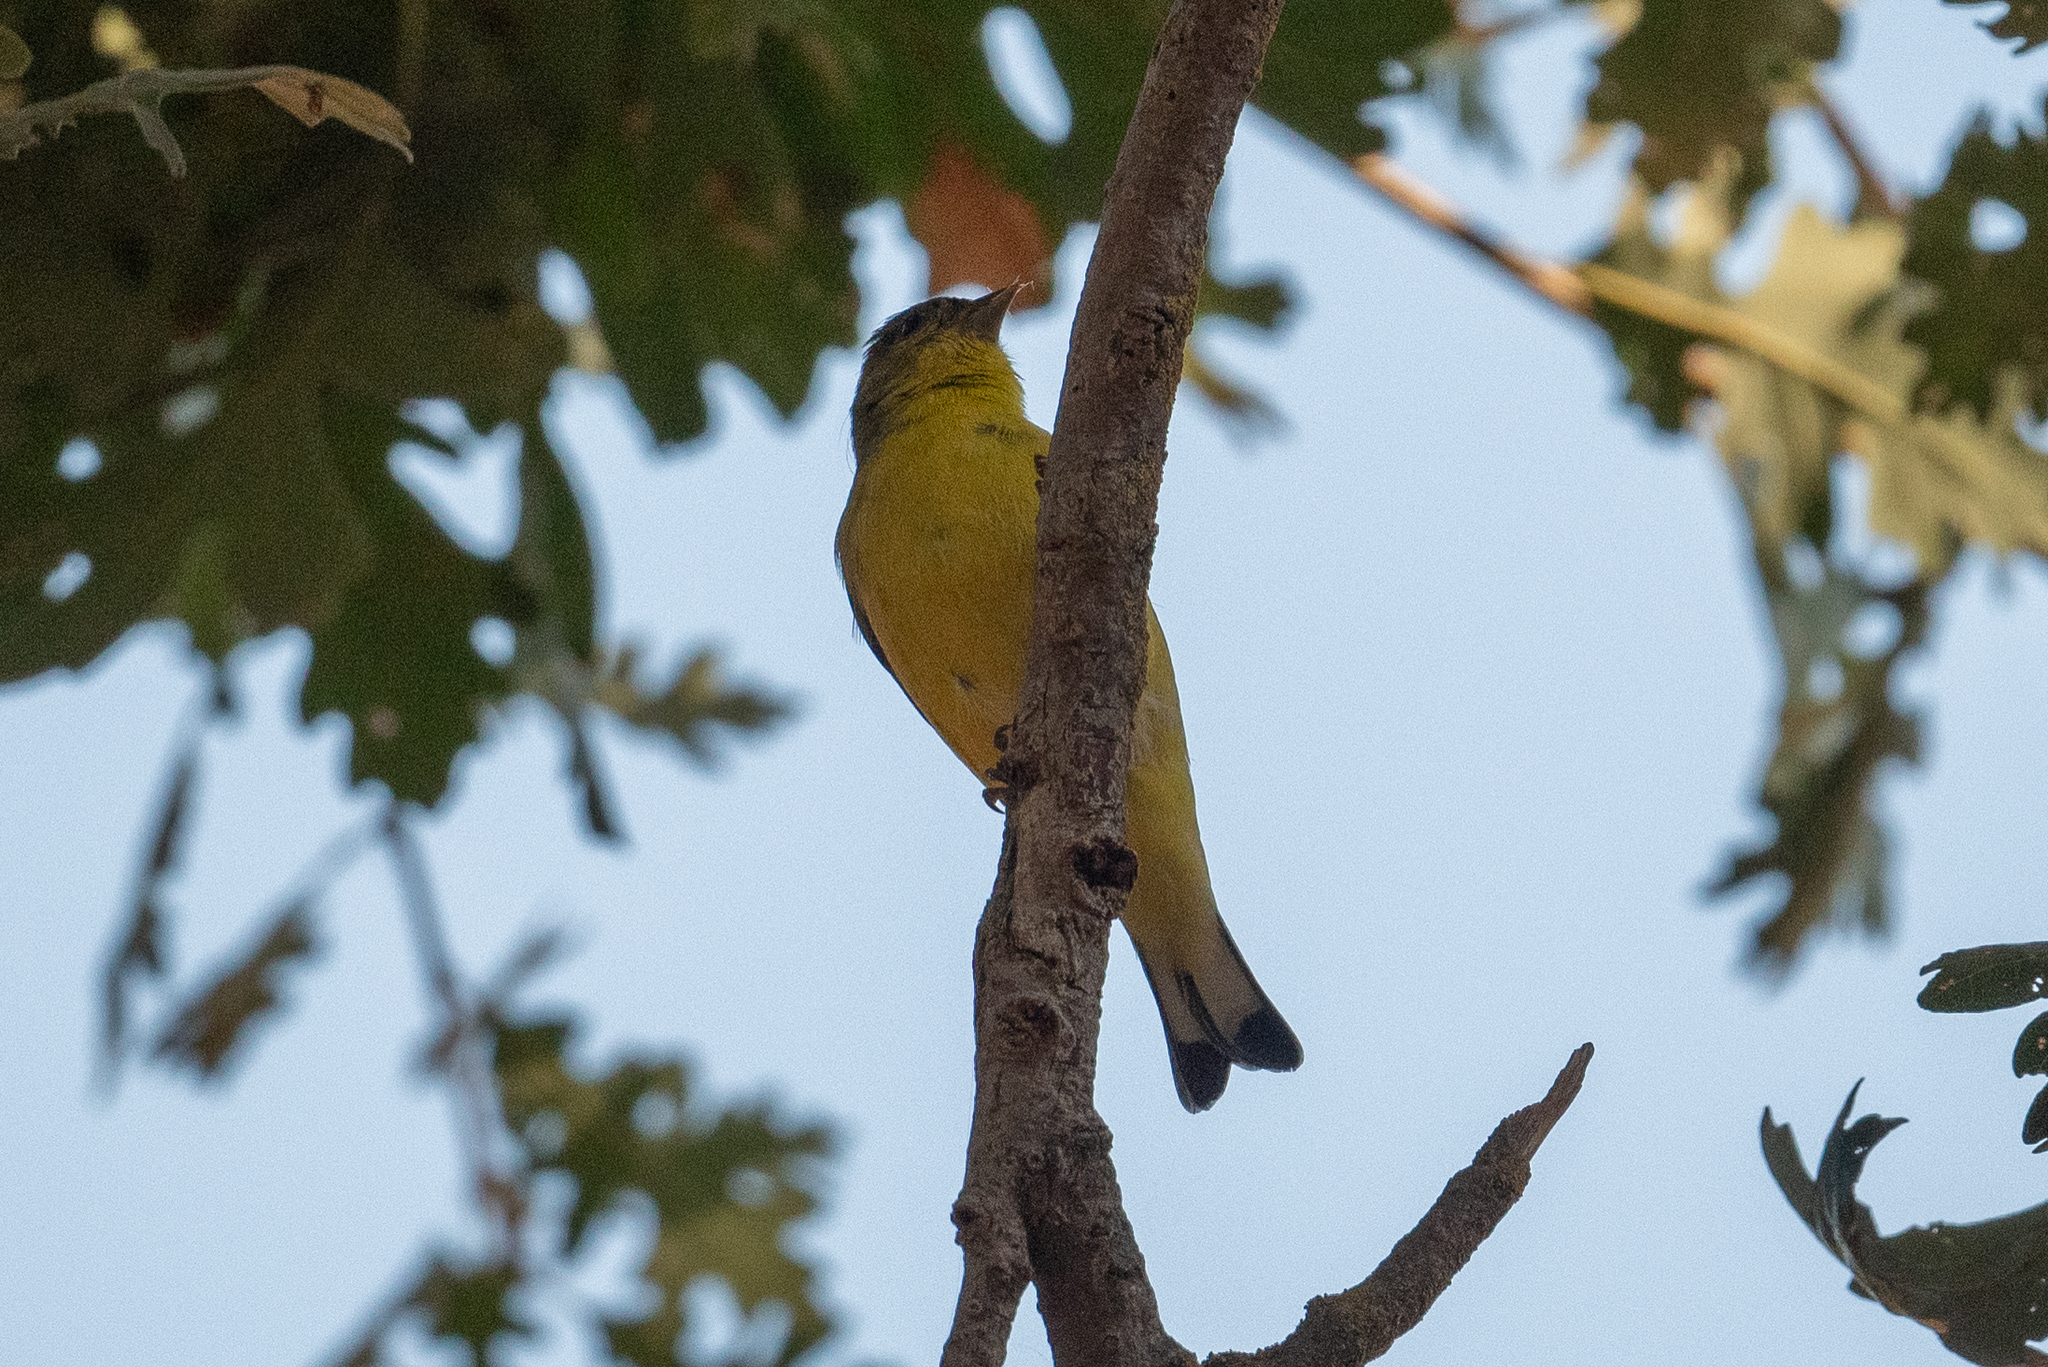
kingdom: Animalia
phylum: Chordata
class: Aves
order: Passeriformes
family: Fringillidae
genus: Spinus
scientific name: Spinus psaltria
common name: Lesser goldfinch
